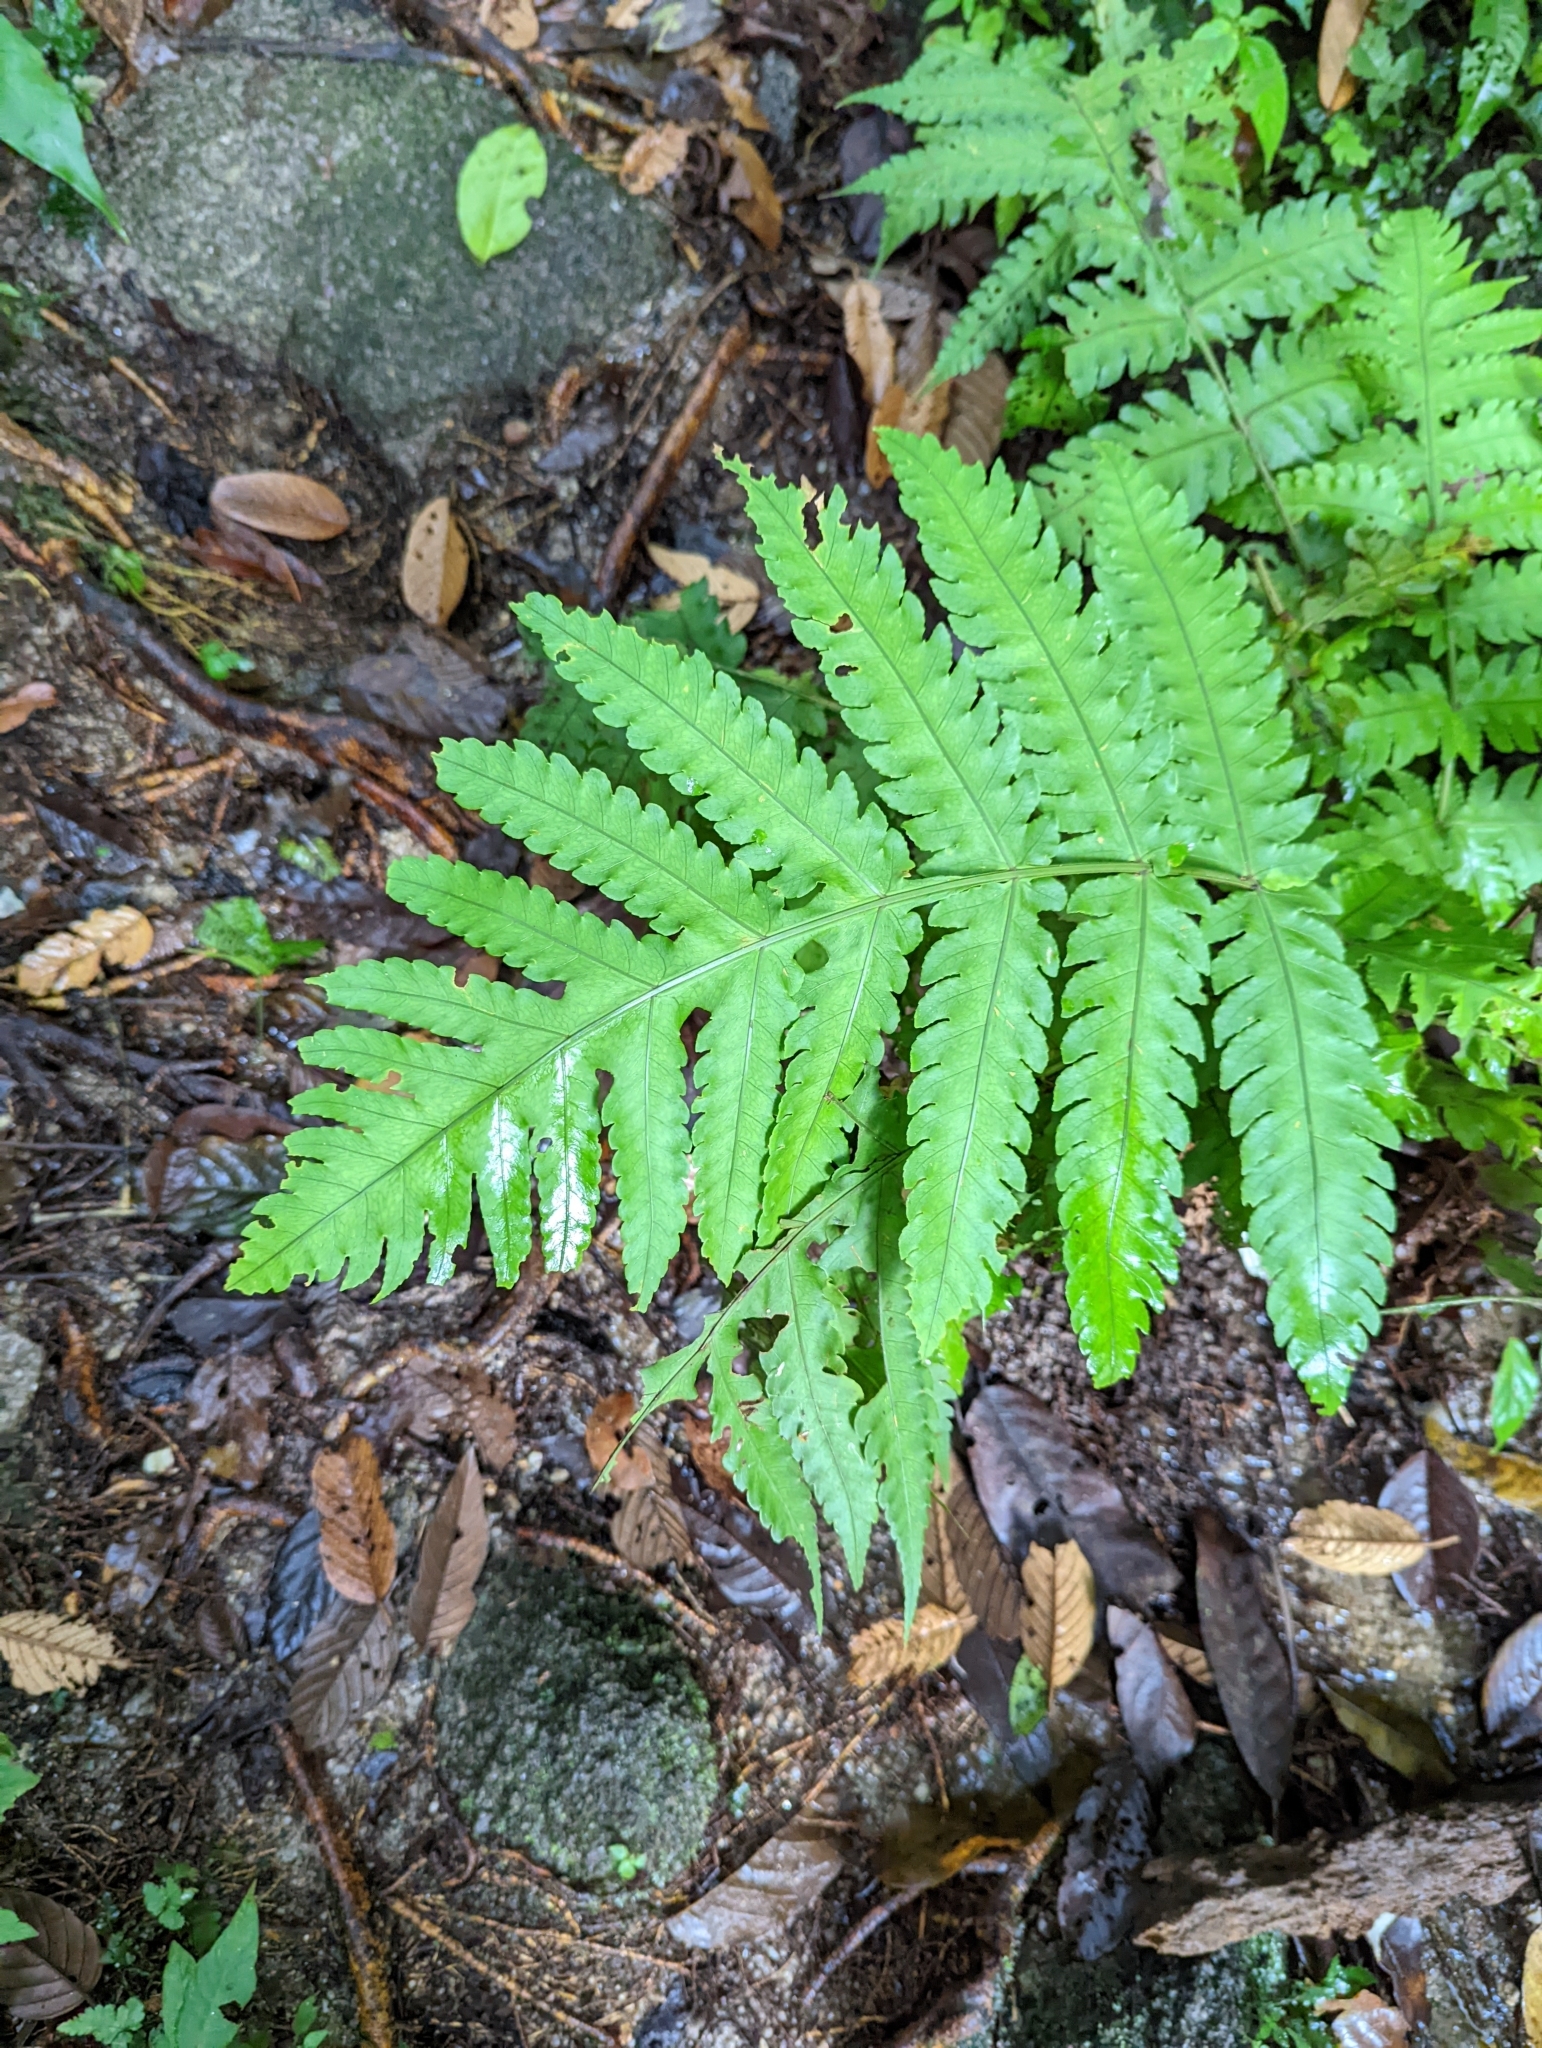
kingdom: Plantae
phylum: Tracheophyta
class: Polypodiopsida
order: Polypodiales
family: Dryopteridaceae
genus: Pleocnemia
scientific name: Pleocnemia irregularis
